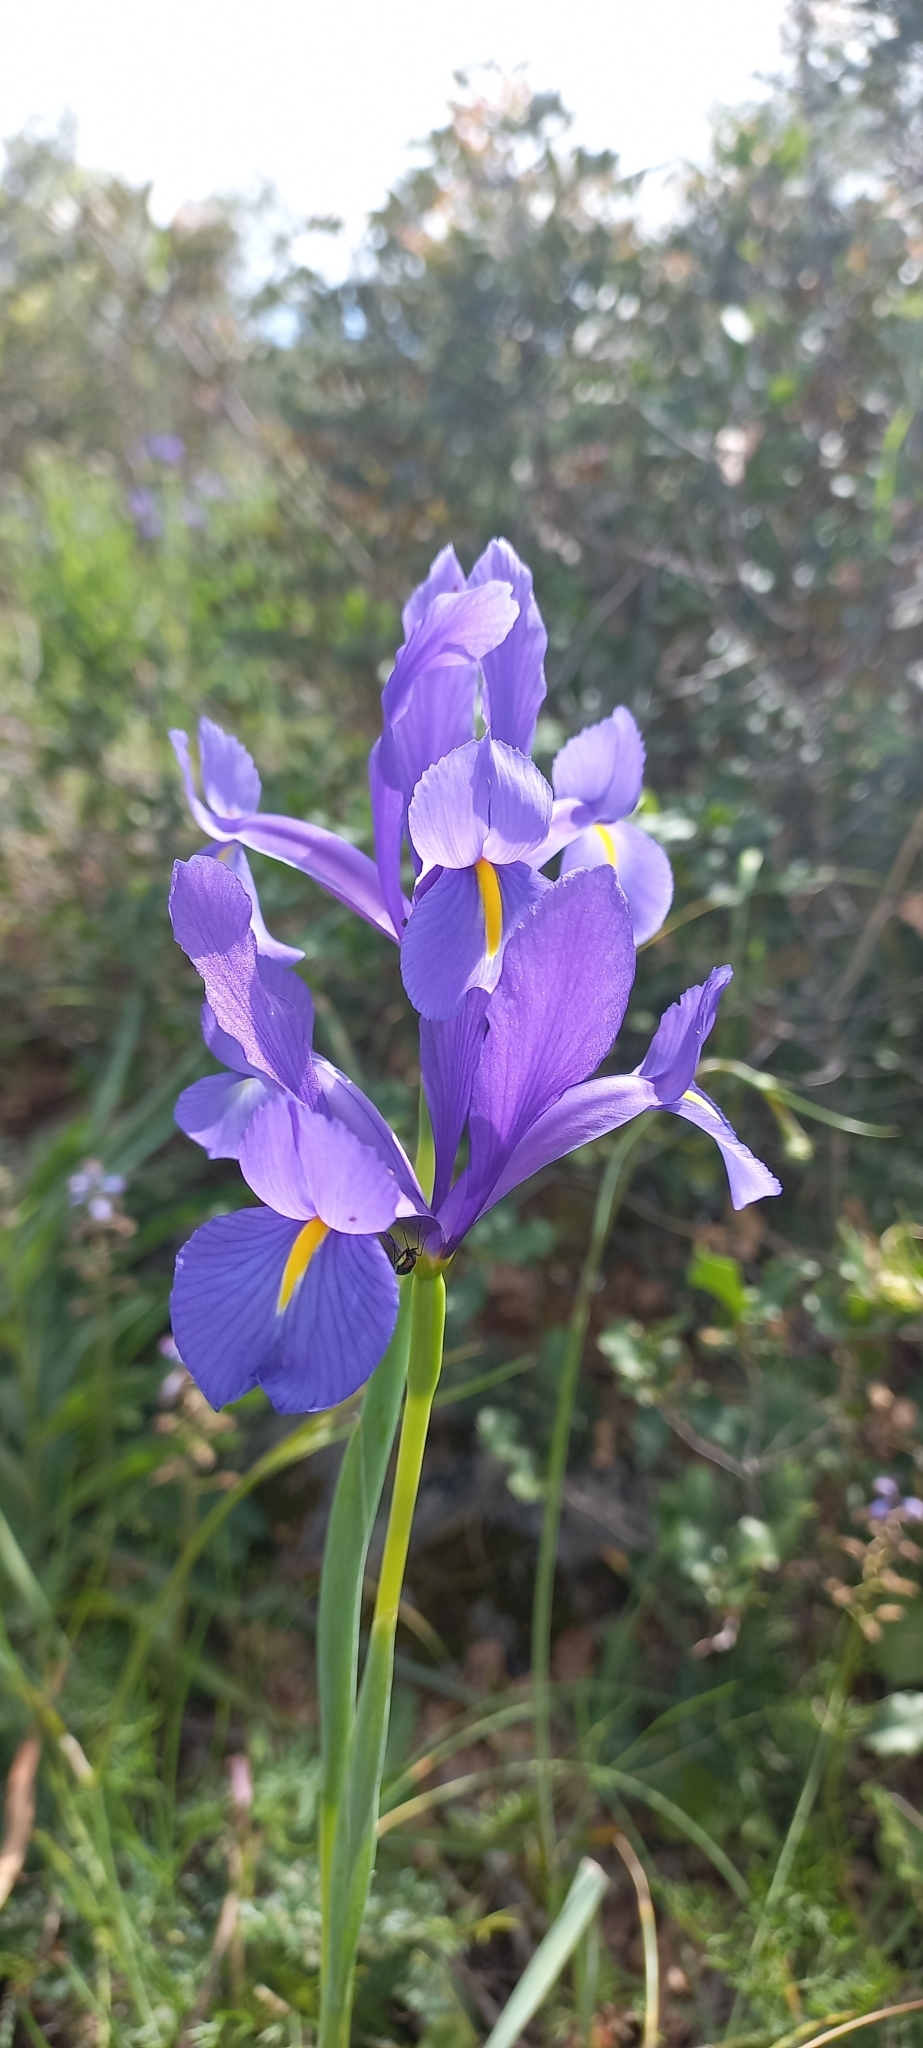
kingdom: Plantae
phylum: Tracheophyta
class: Liliopsida
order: Asparagales
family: Iridaceae
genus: Iris
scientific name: Iris xiphium
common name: Spanish iris
